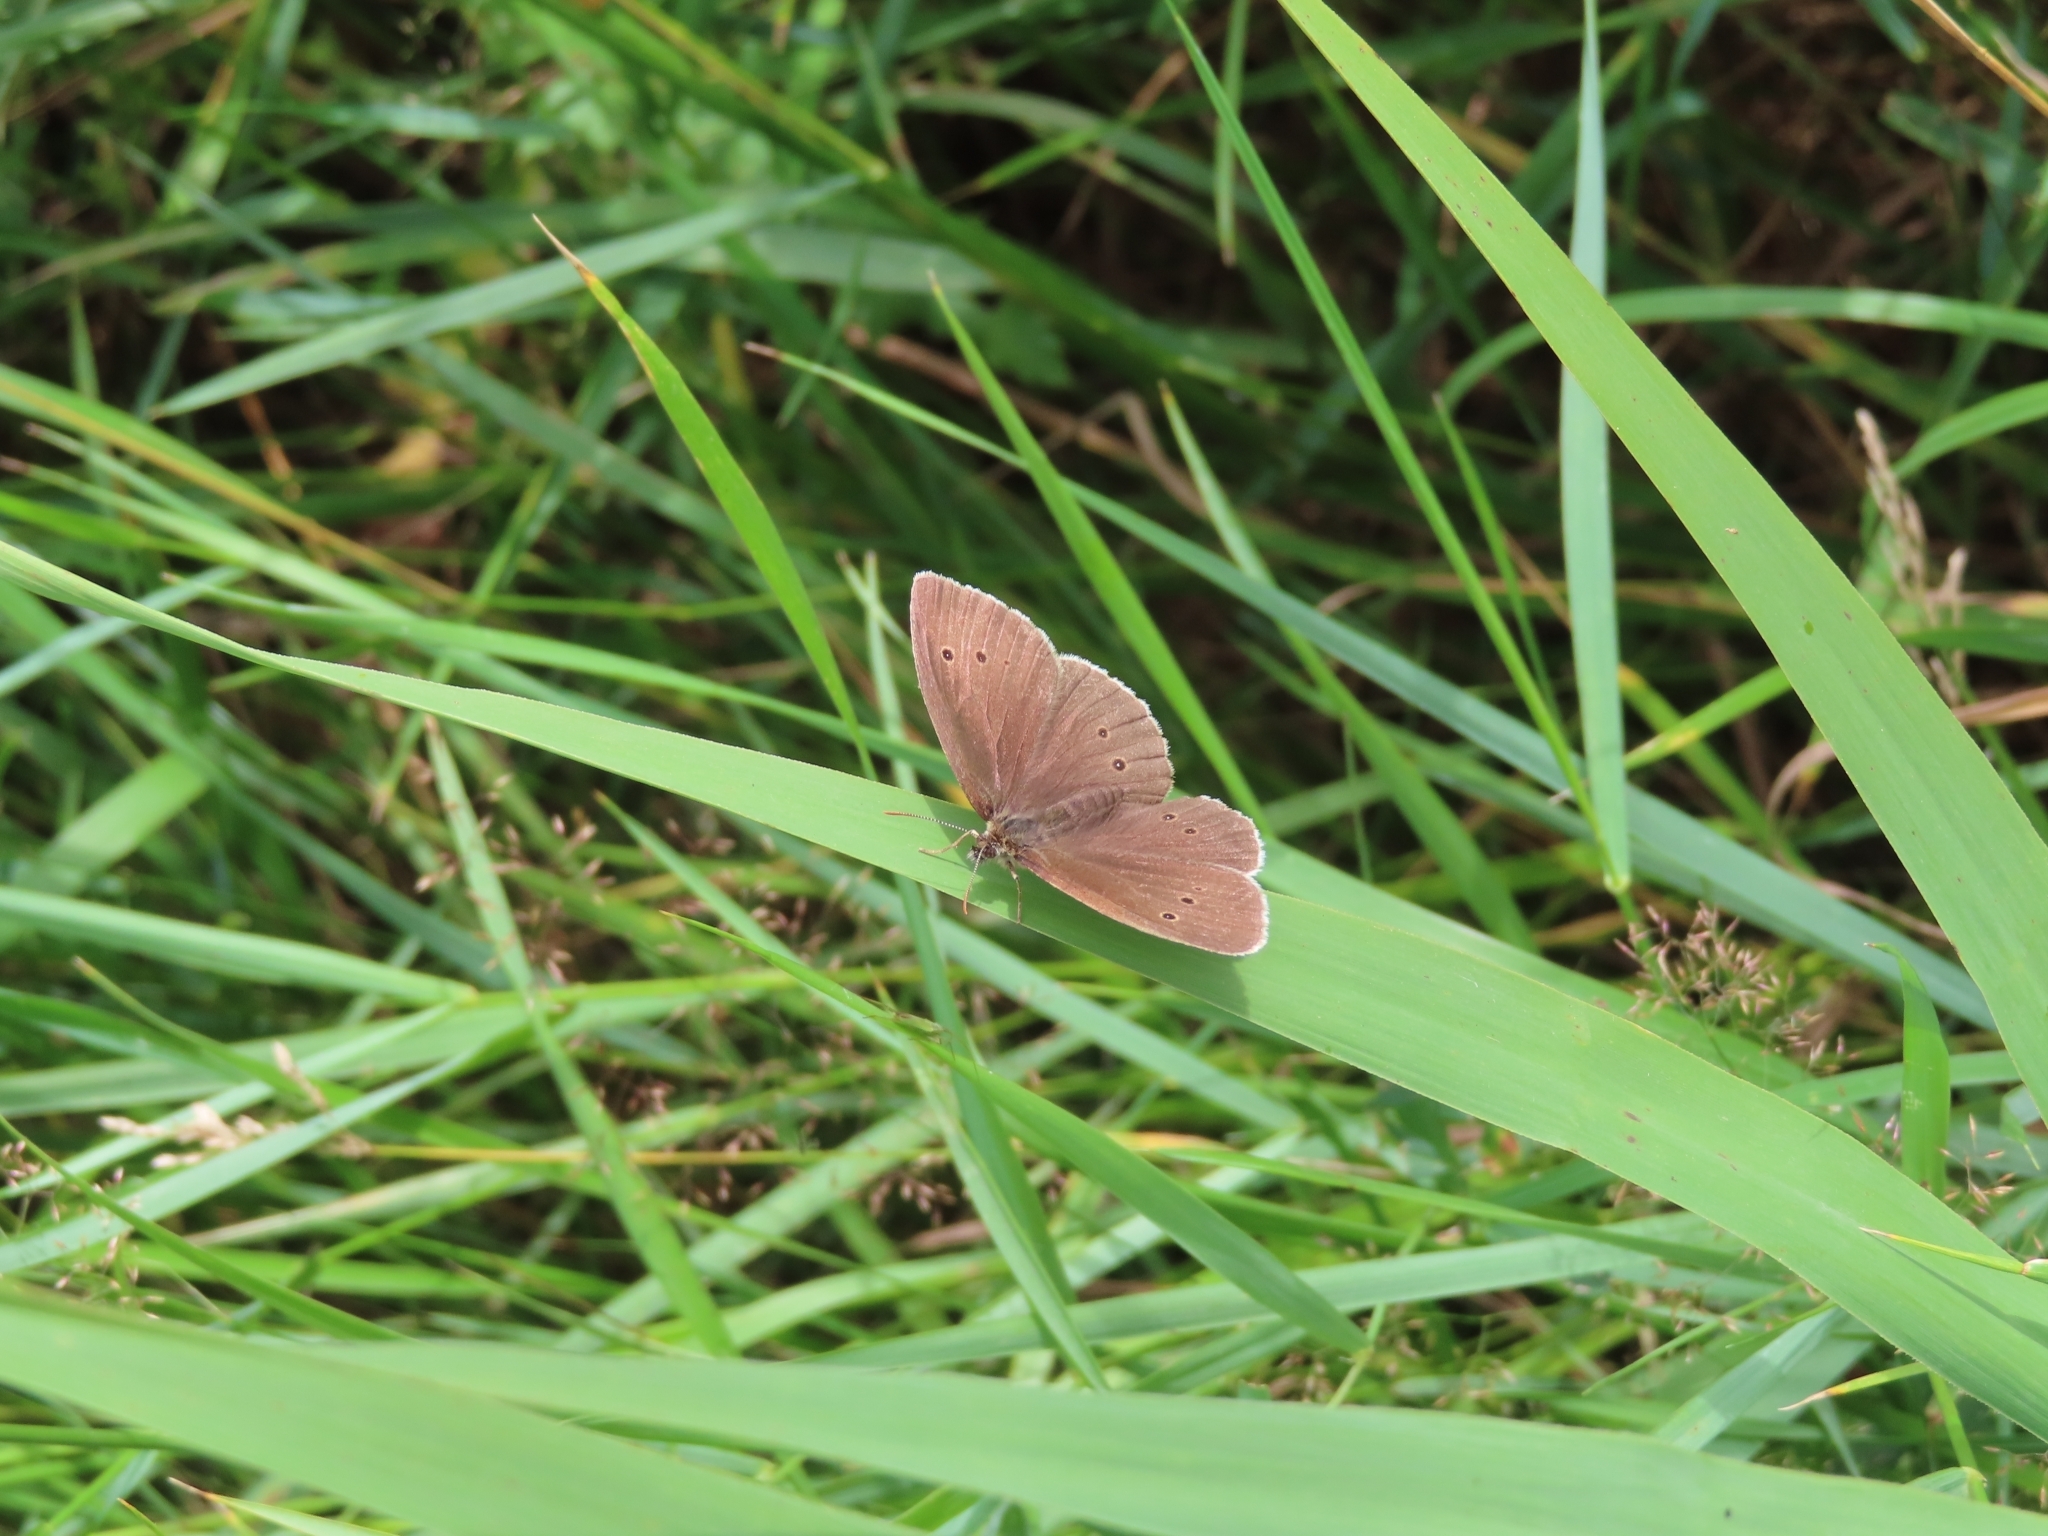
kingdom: Animalia
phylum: Arthropoda
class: Insecta
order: Lepidoptera
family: Nymphalidae
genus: Aphantopus
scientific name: Aphantopus hyperantus
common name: Ringlet
